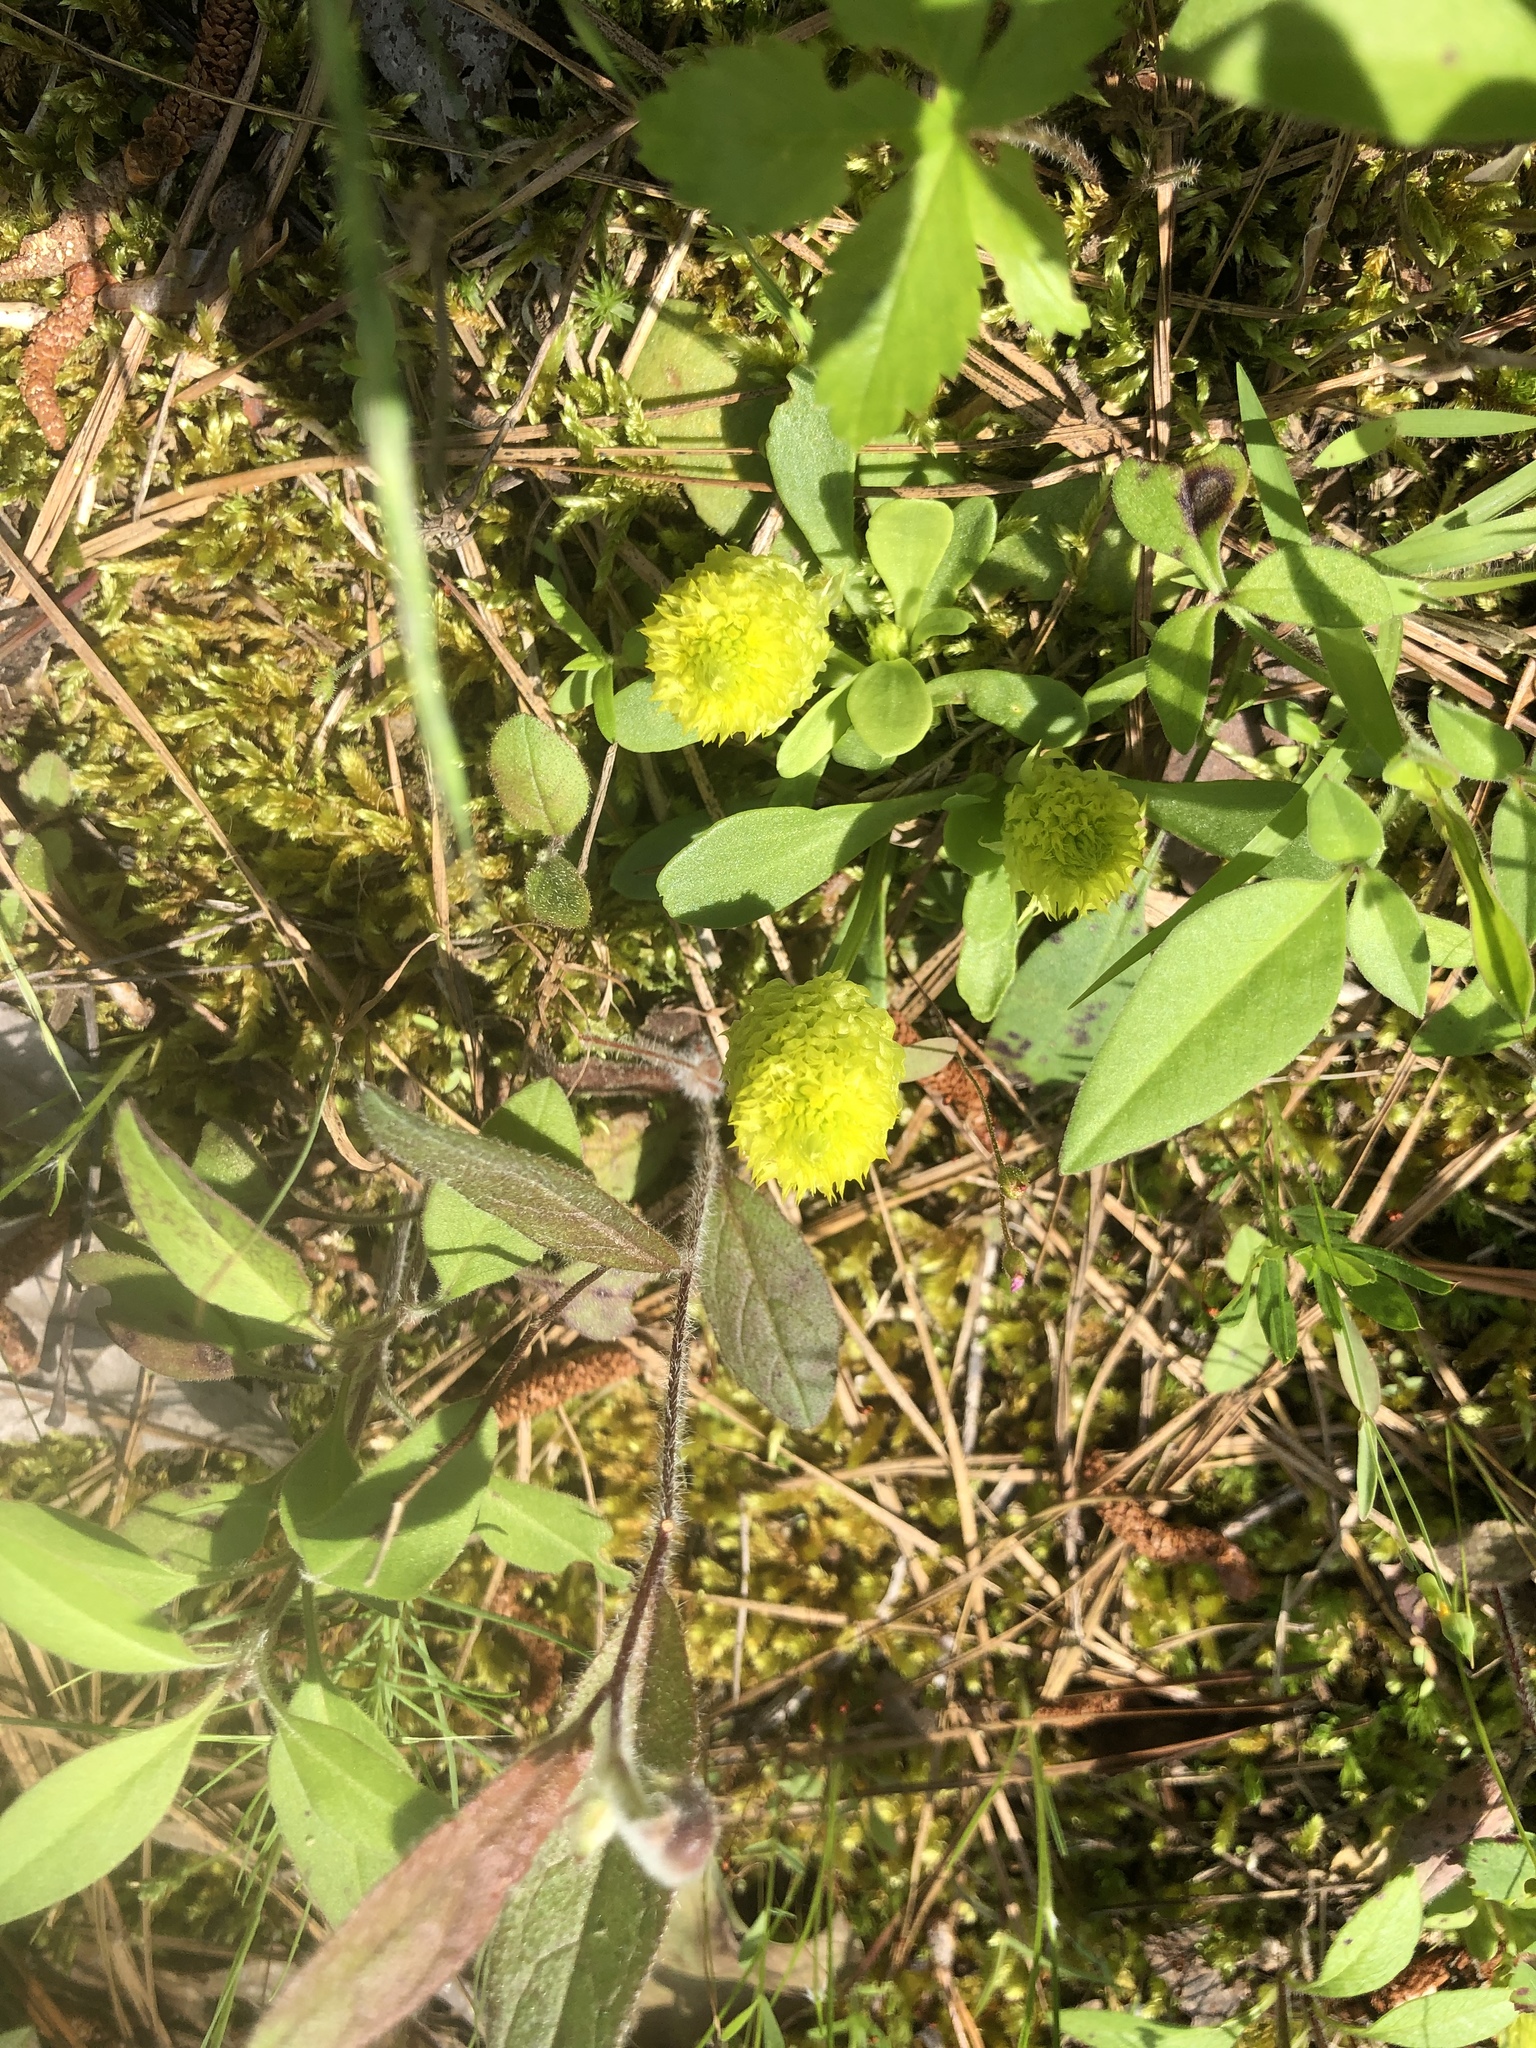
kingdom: Plantae
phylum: Tracheophyta
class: Magnoliopsida
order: Fabales
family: Polygalaceae
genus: Polygala
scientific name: Polygala nana
